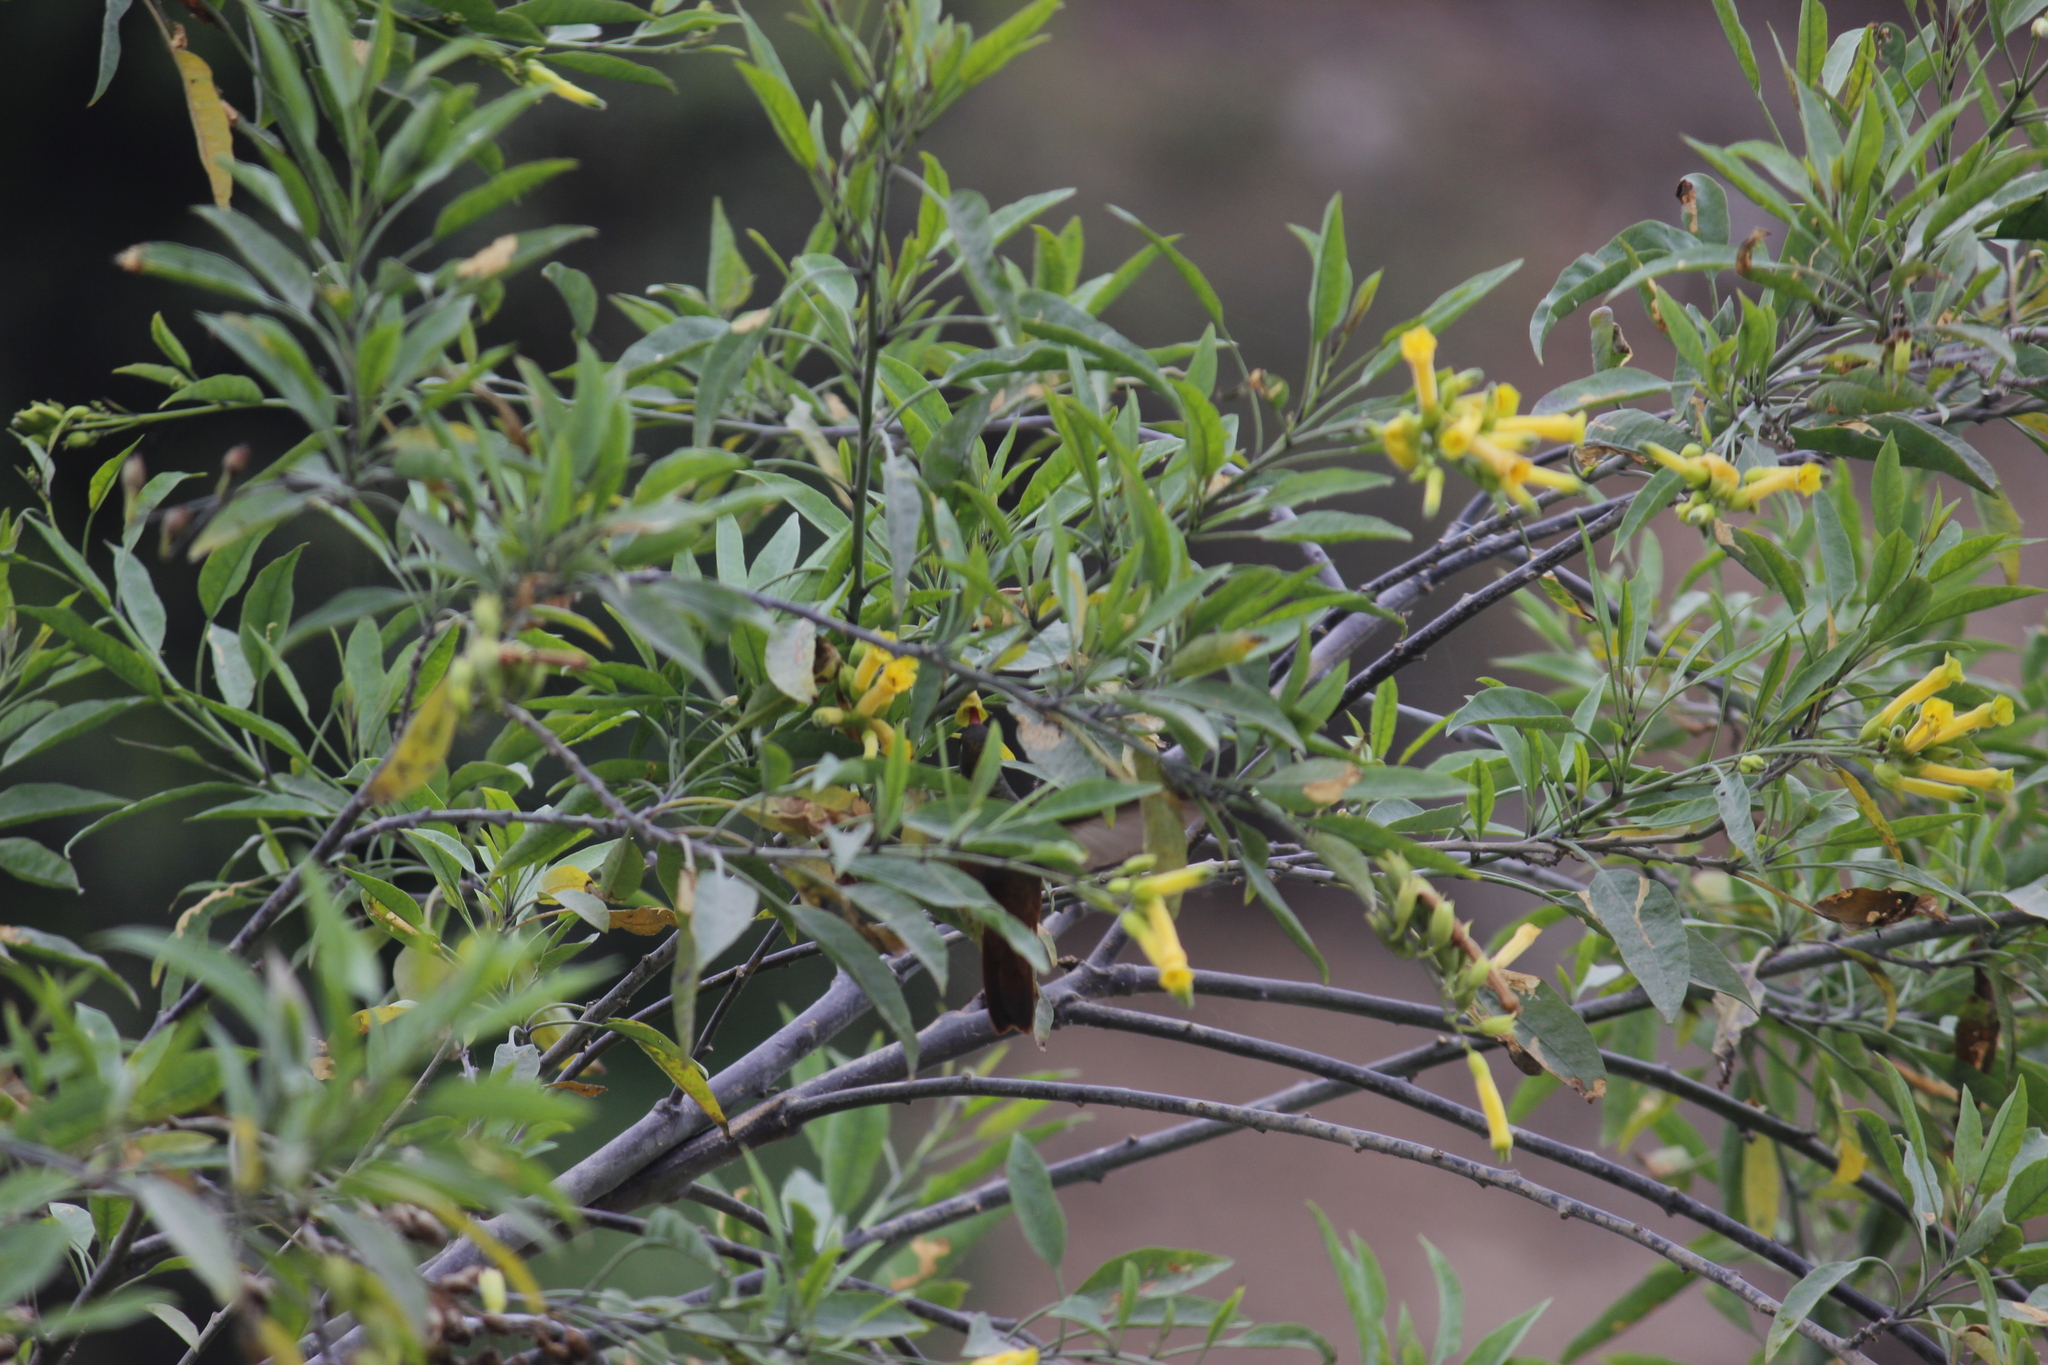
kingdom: Plantae
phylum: Tracheophyta
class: Magnoliopsida
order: Solanales
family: Solanaceae
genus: Nicotiana
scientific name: Nicotiana glauca
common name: Tree tobacco
